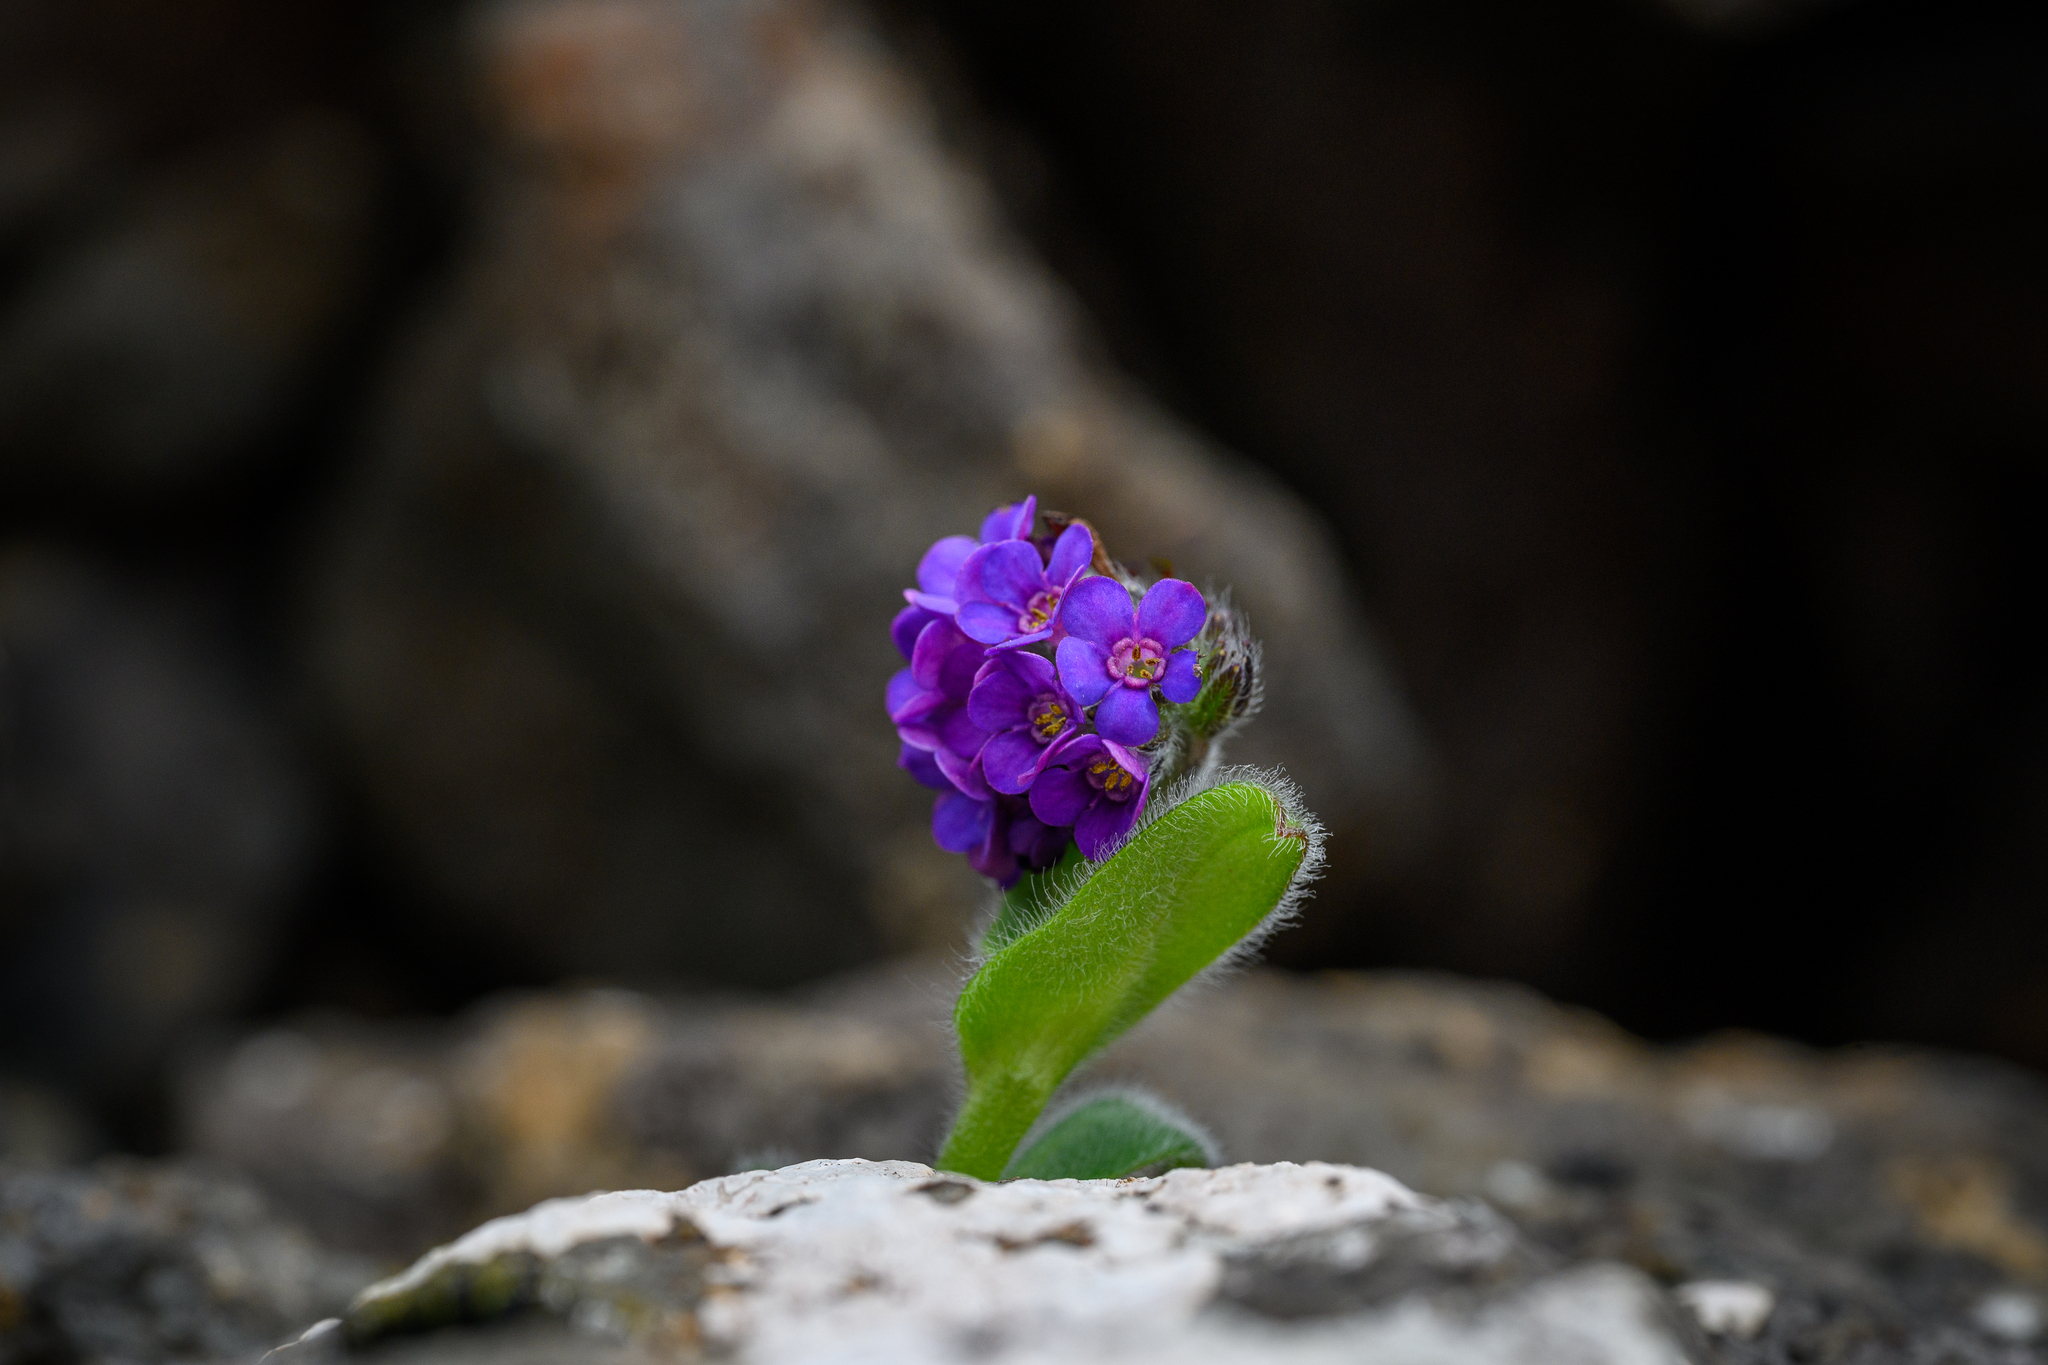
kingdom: Plantae
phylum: Tracheophyta
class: Magnoliopsida
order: Boraginales
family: Boraginaceae
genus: Myosotis
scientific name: Myosotis capitata
